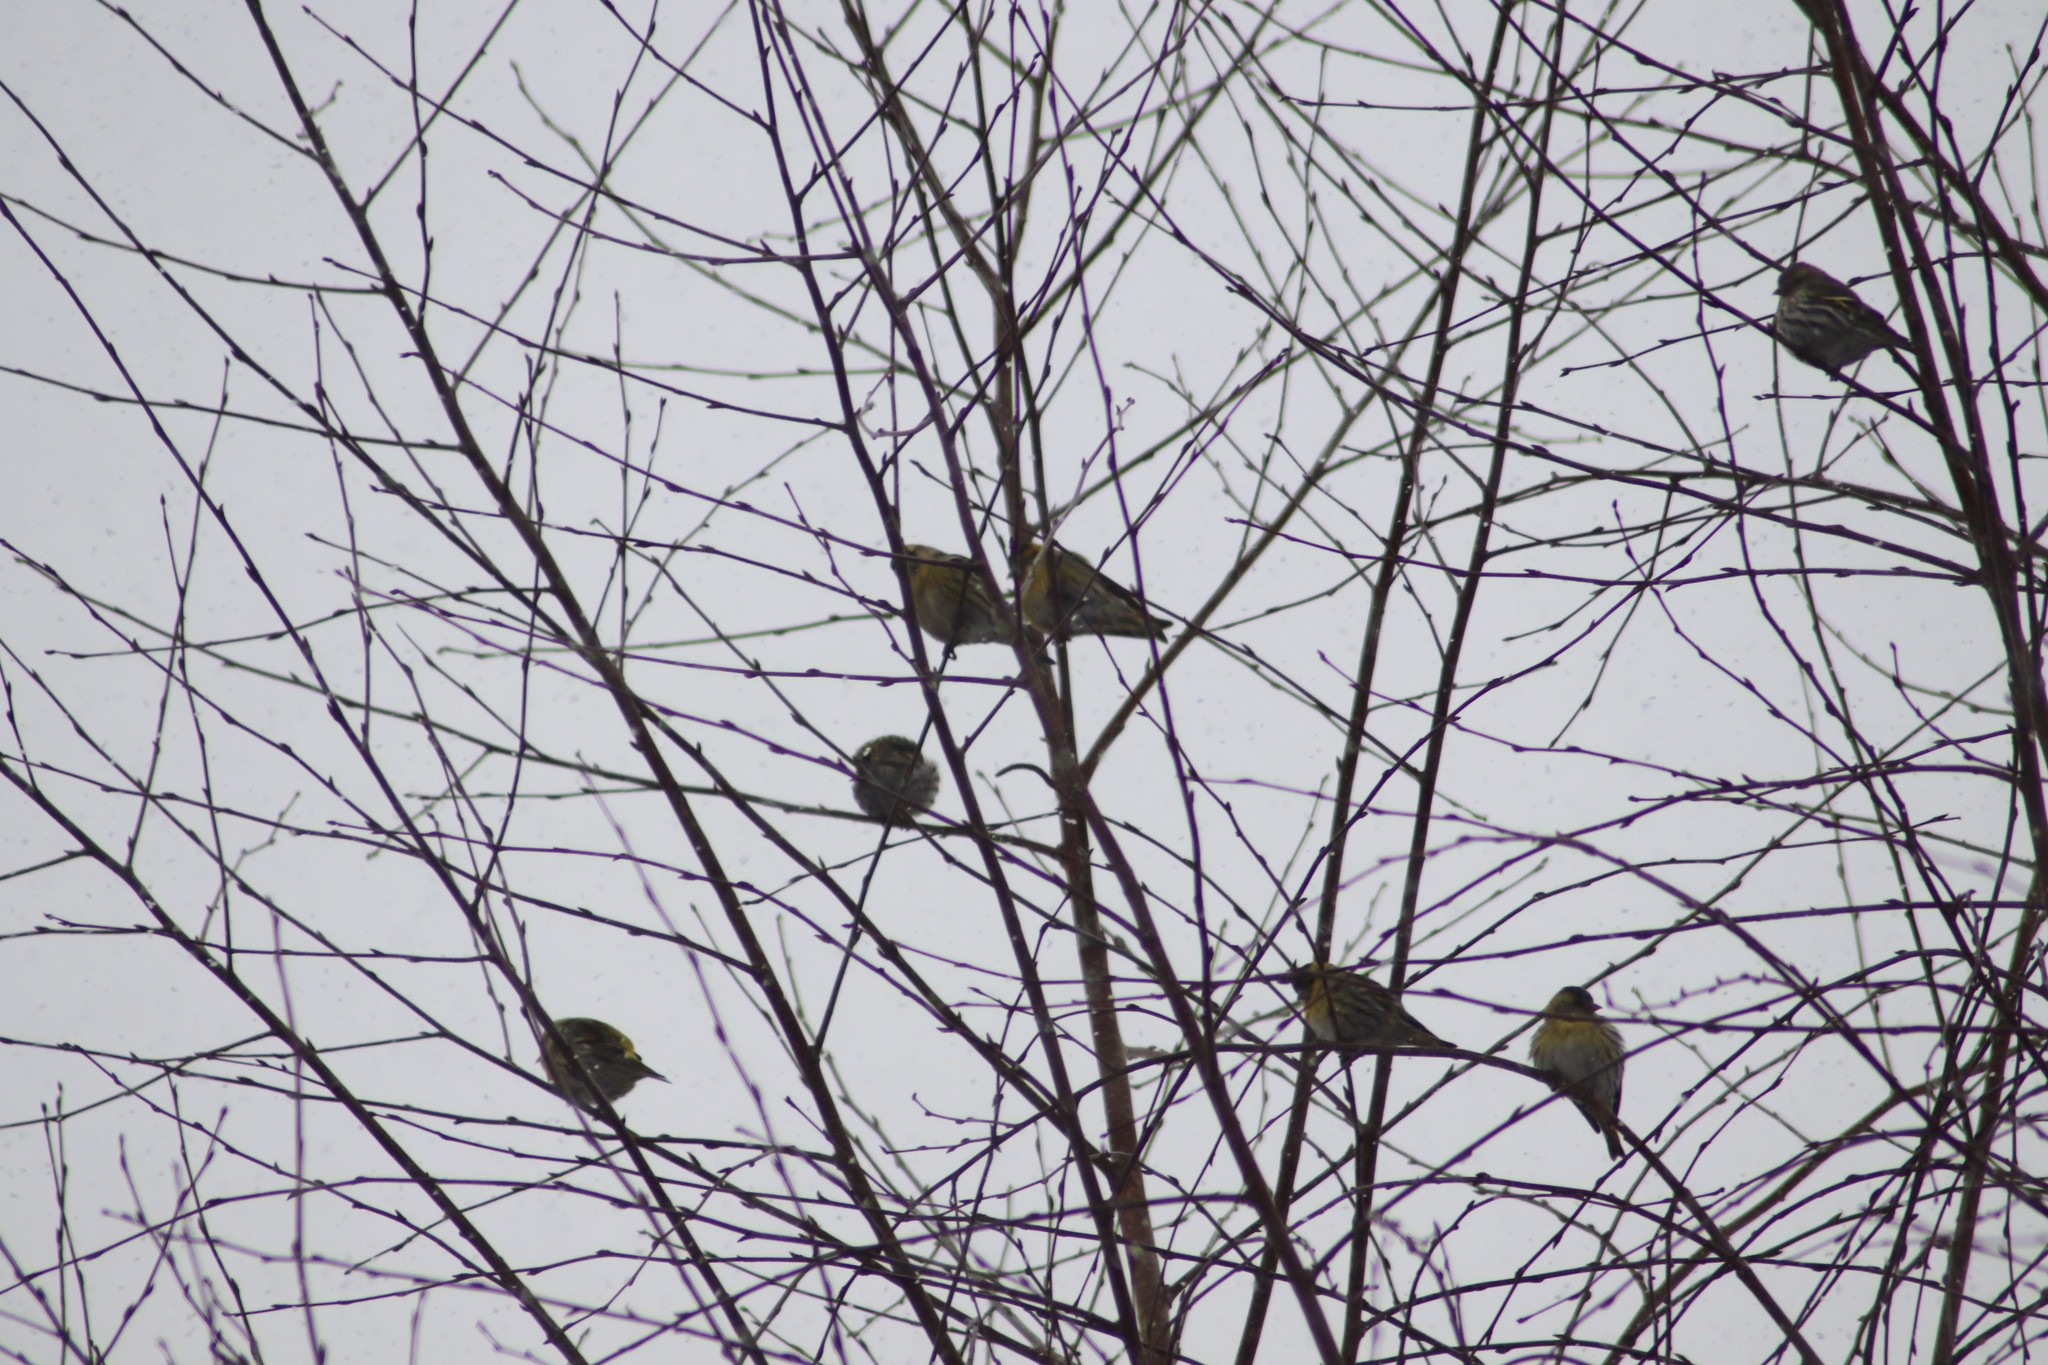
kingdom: Animalia
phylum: Chordata
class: Aves
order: Passeriformes
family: Fringillidae
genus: Spinus
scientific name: Spinus spinus
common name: Eurasian siskin
